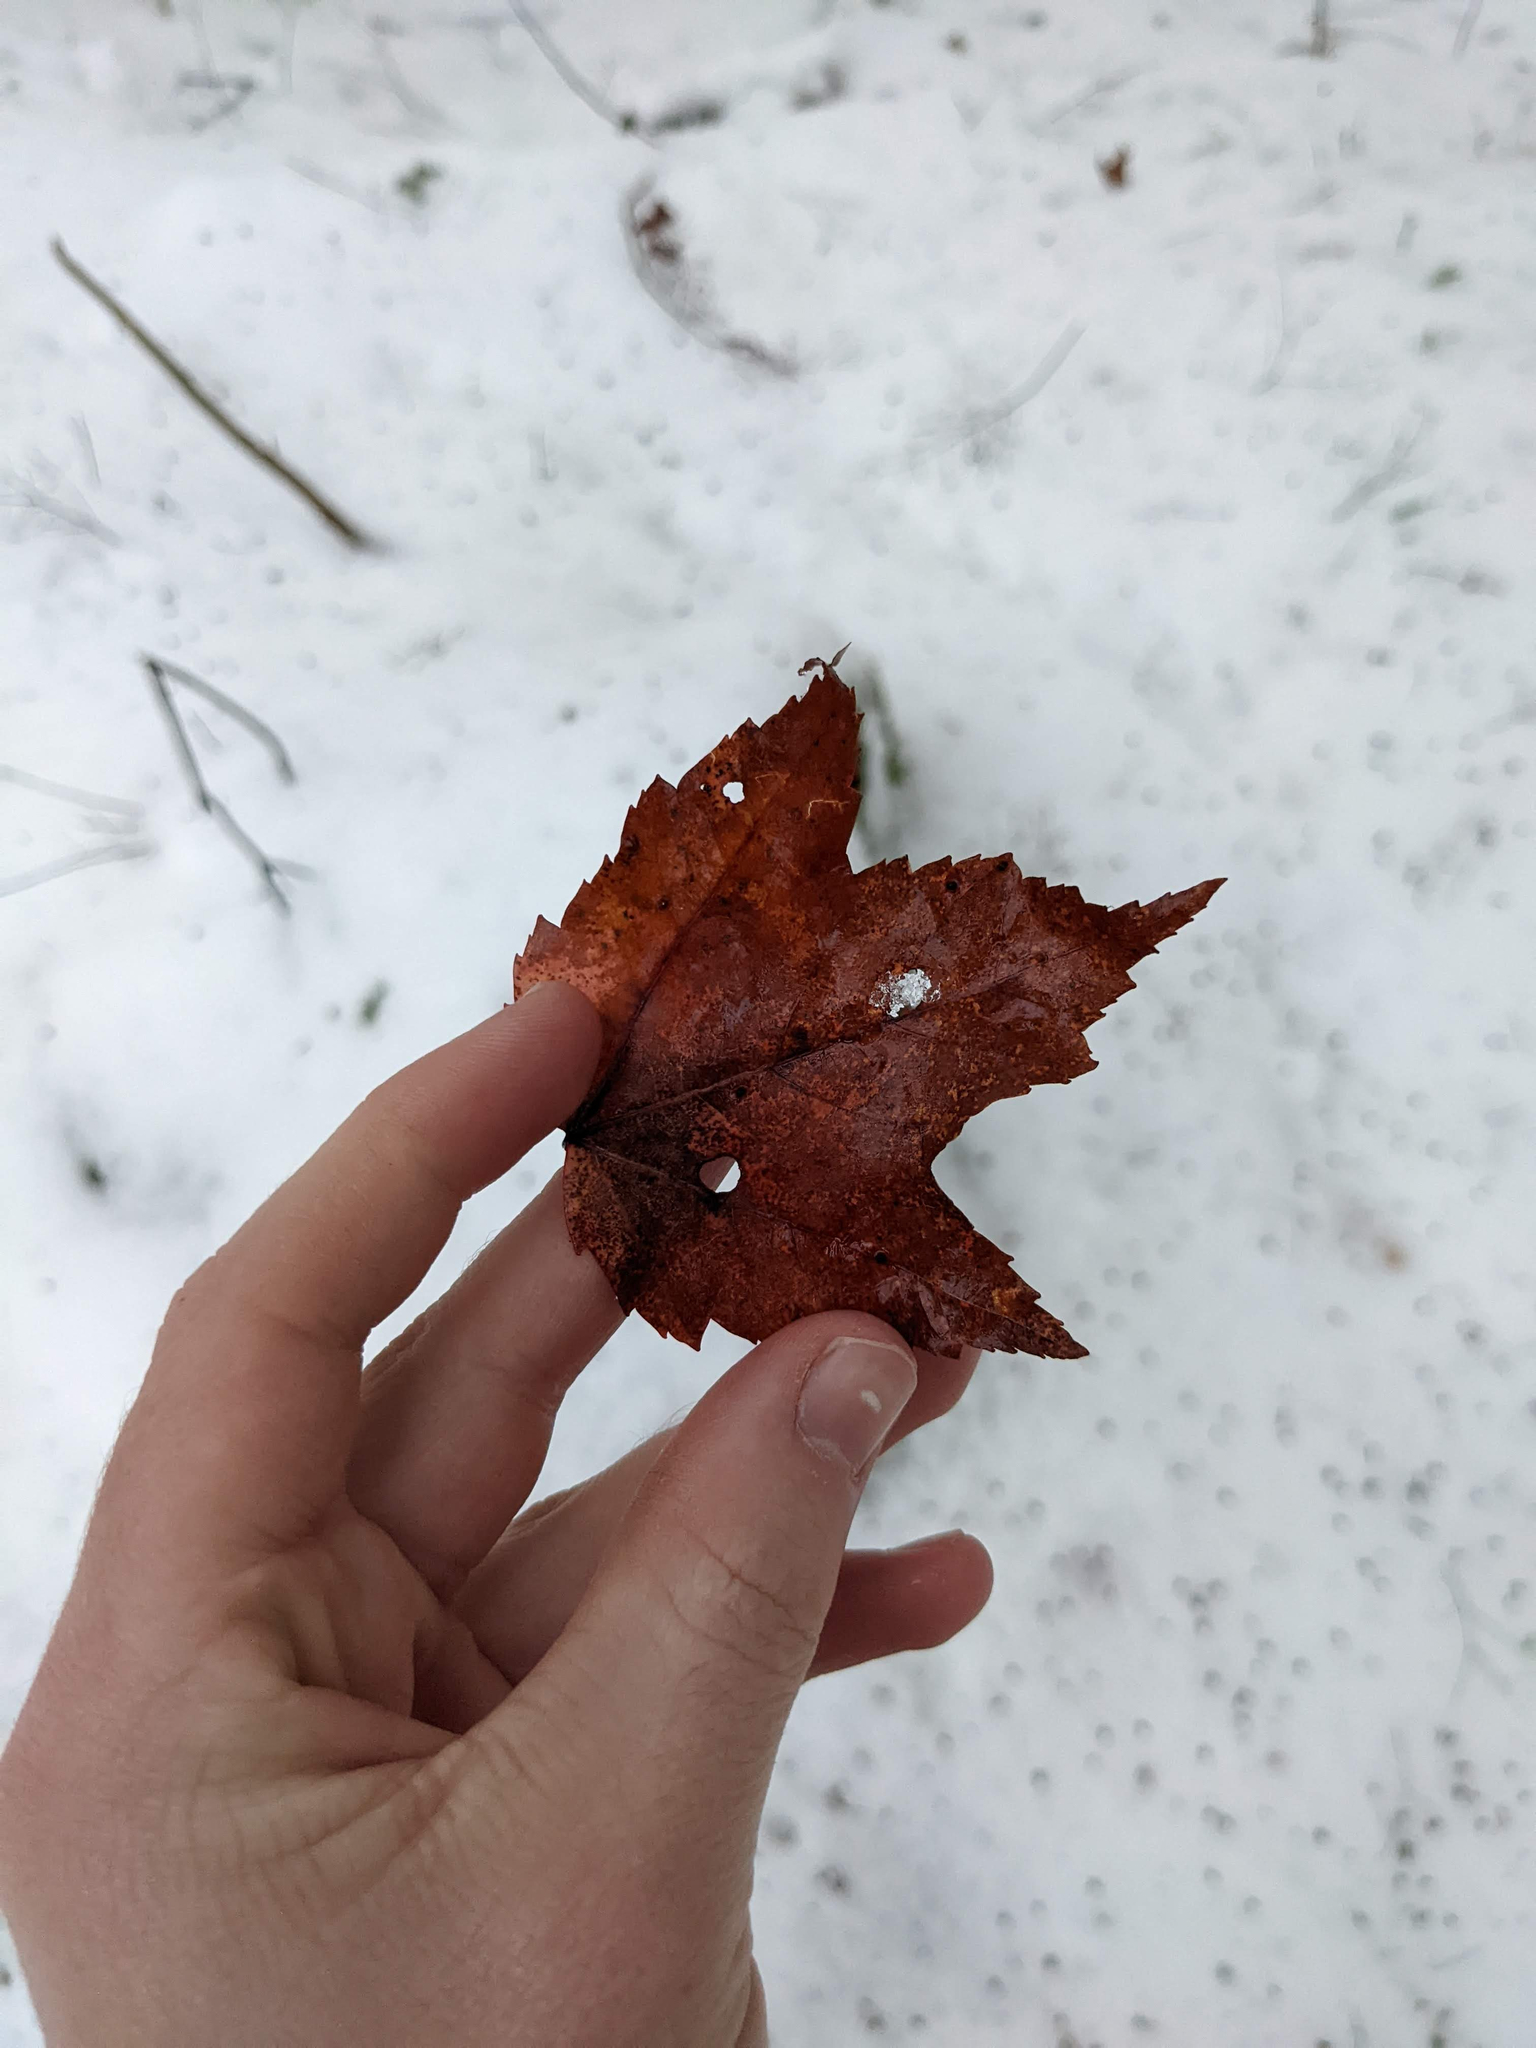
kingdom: Plantae
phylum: Tracheophyta
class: Magnoliopsida
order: Sapindales
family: Sapindaceae
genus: Acer
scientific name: Acer rubrum
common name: Red maple
